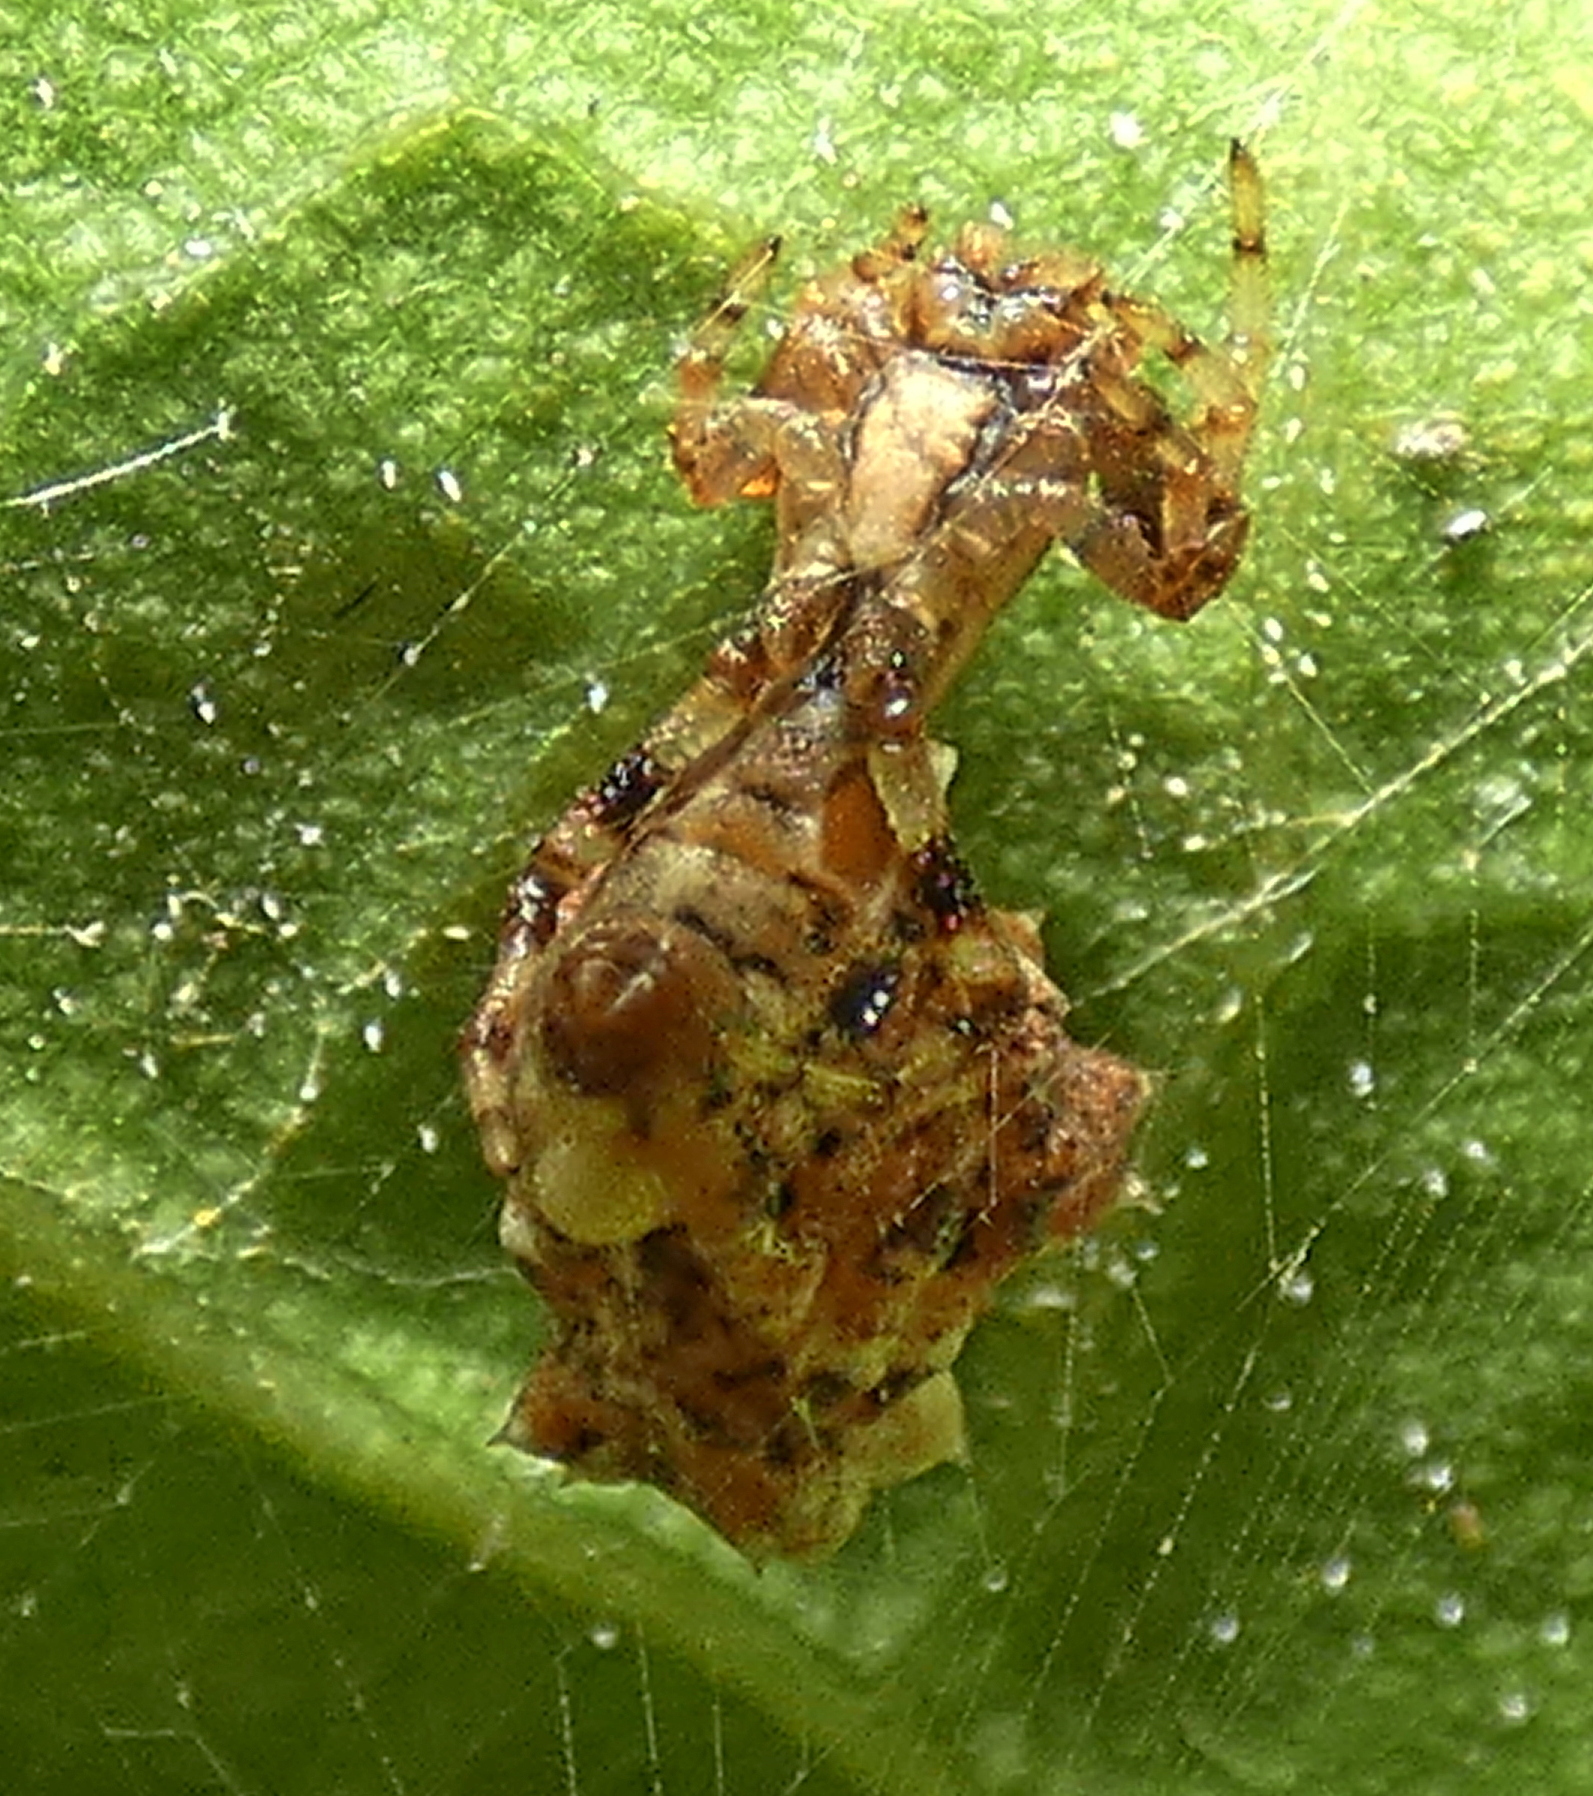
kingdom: Animalia
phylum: Arthropoda
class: Arachnida
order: Araneae
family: Araneidae
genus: Micrathena
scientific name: Micrathena horrida
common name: Orb weavers
